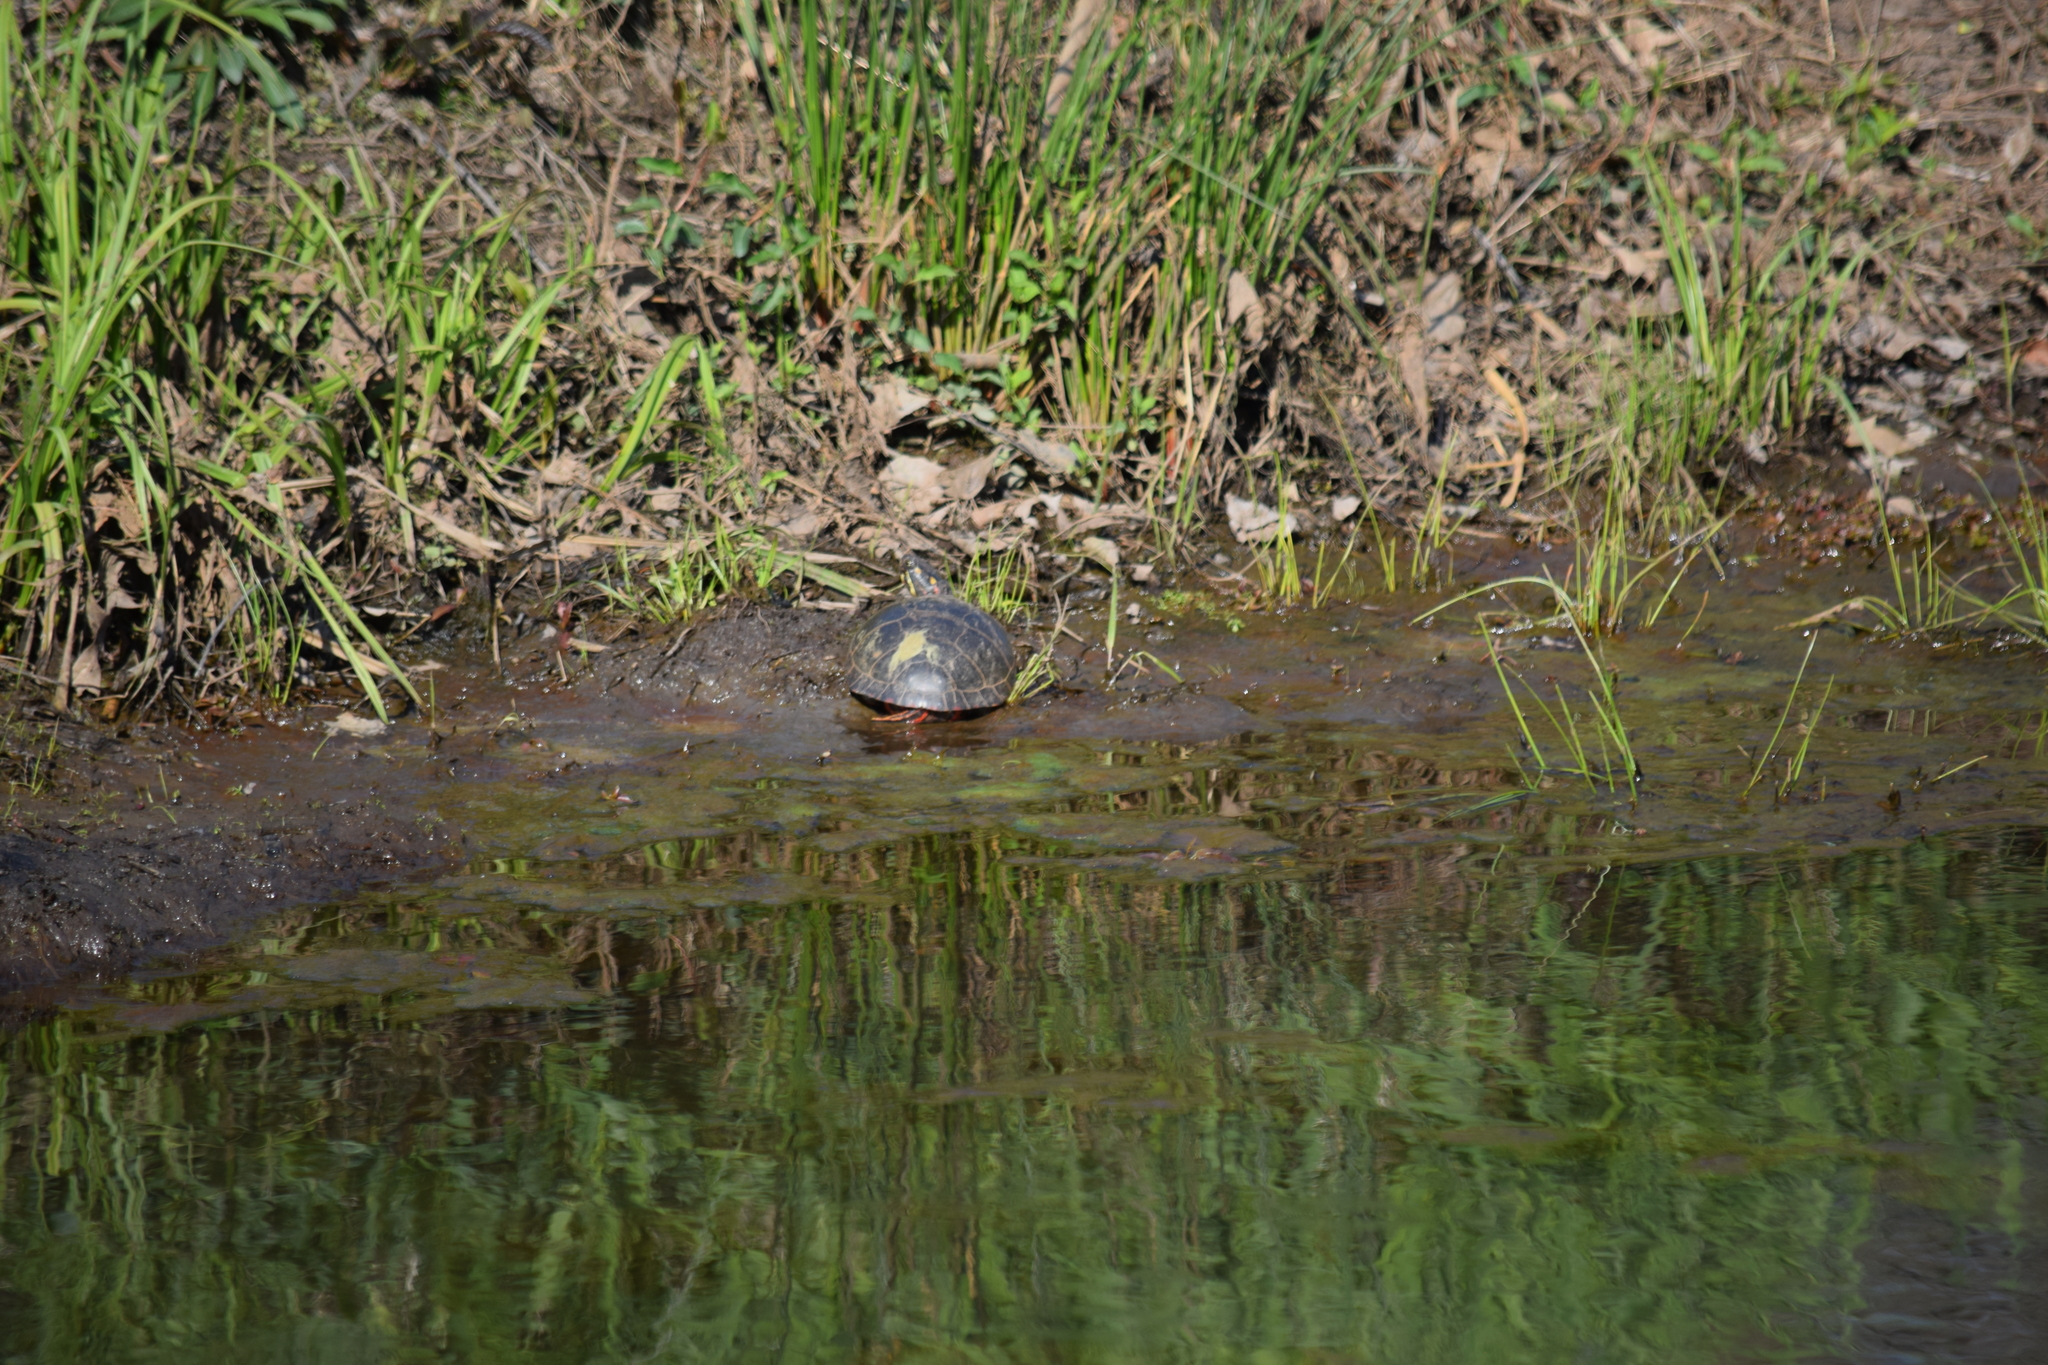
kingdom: Animalia
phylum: Chordata
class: Testudines
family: Emydidae
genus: Chrysemys
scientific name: Chrysemys picta
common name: Painted turtle
